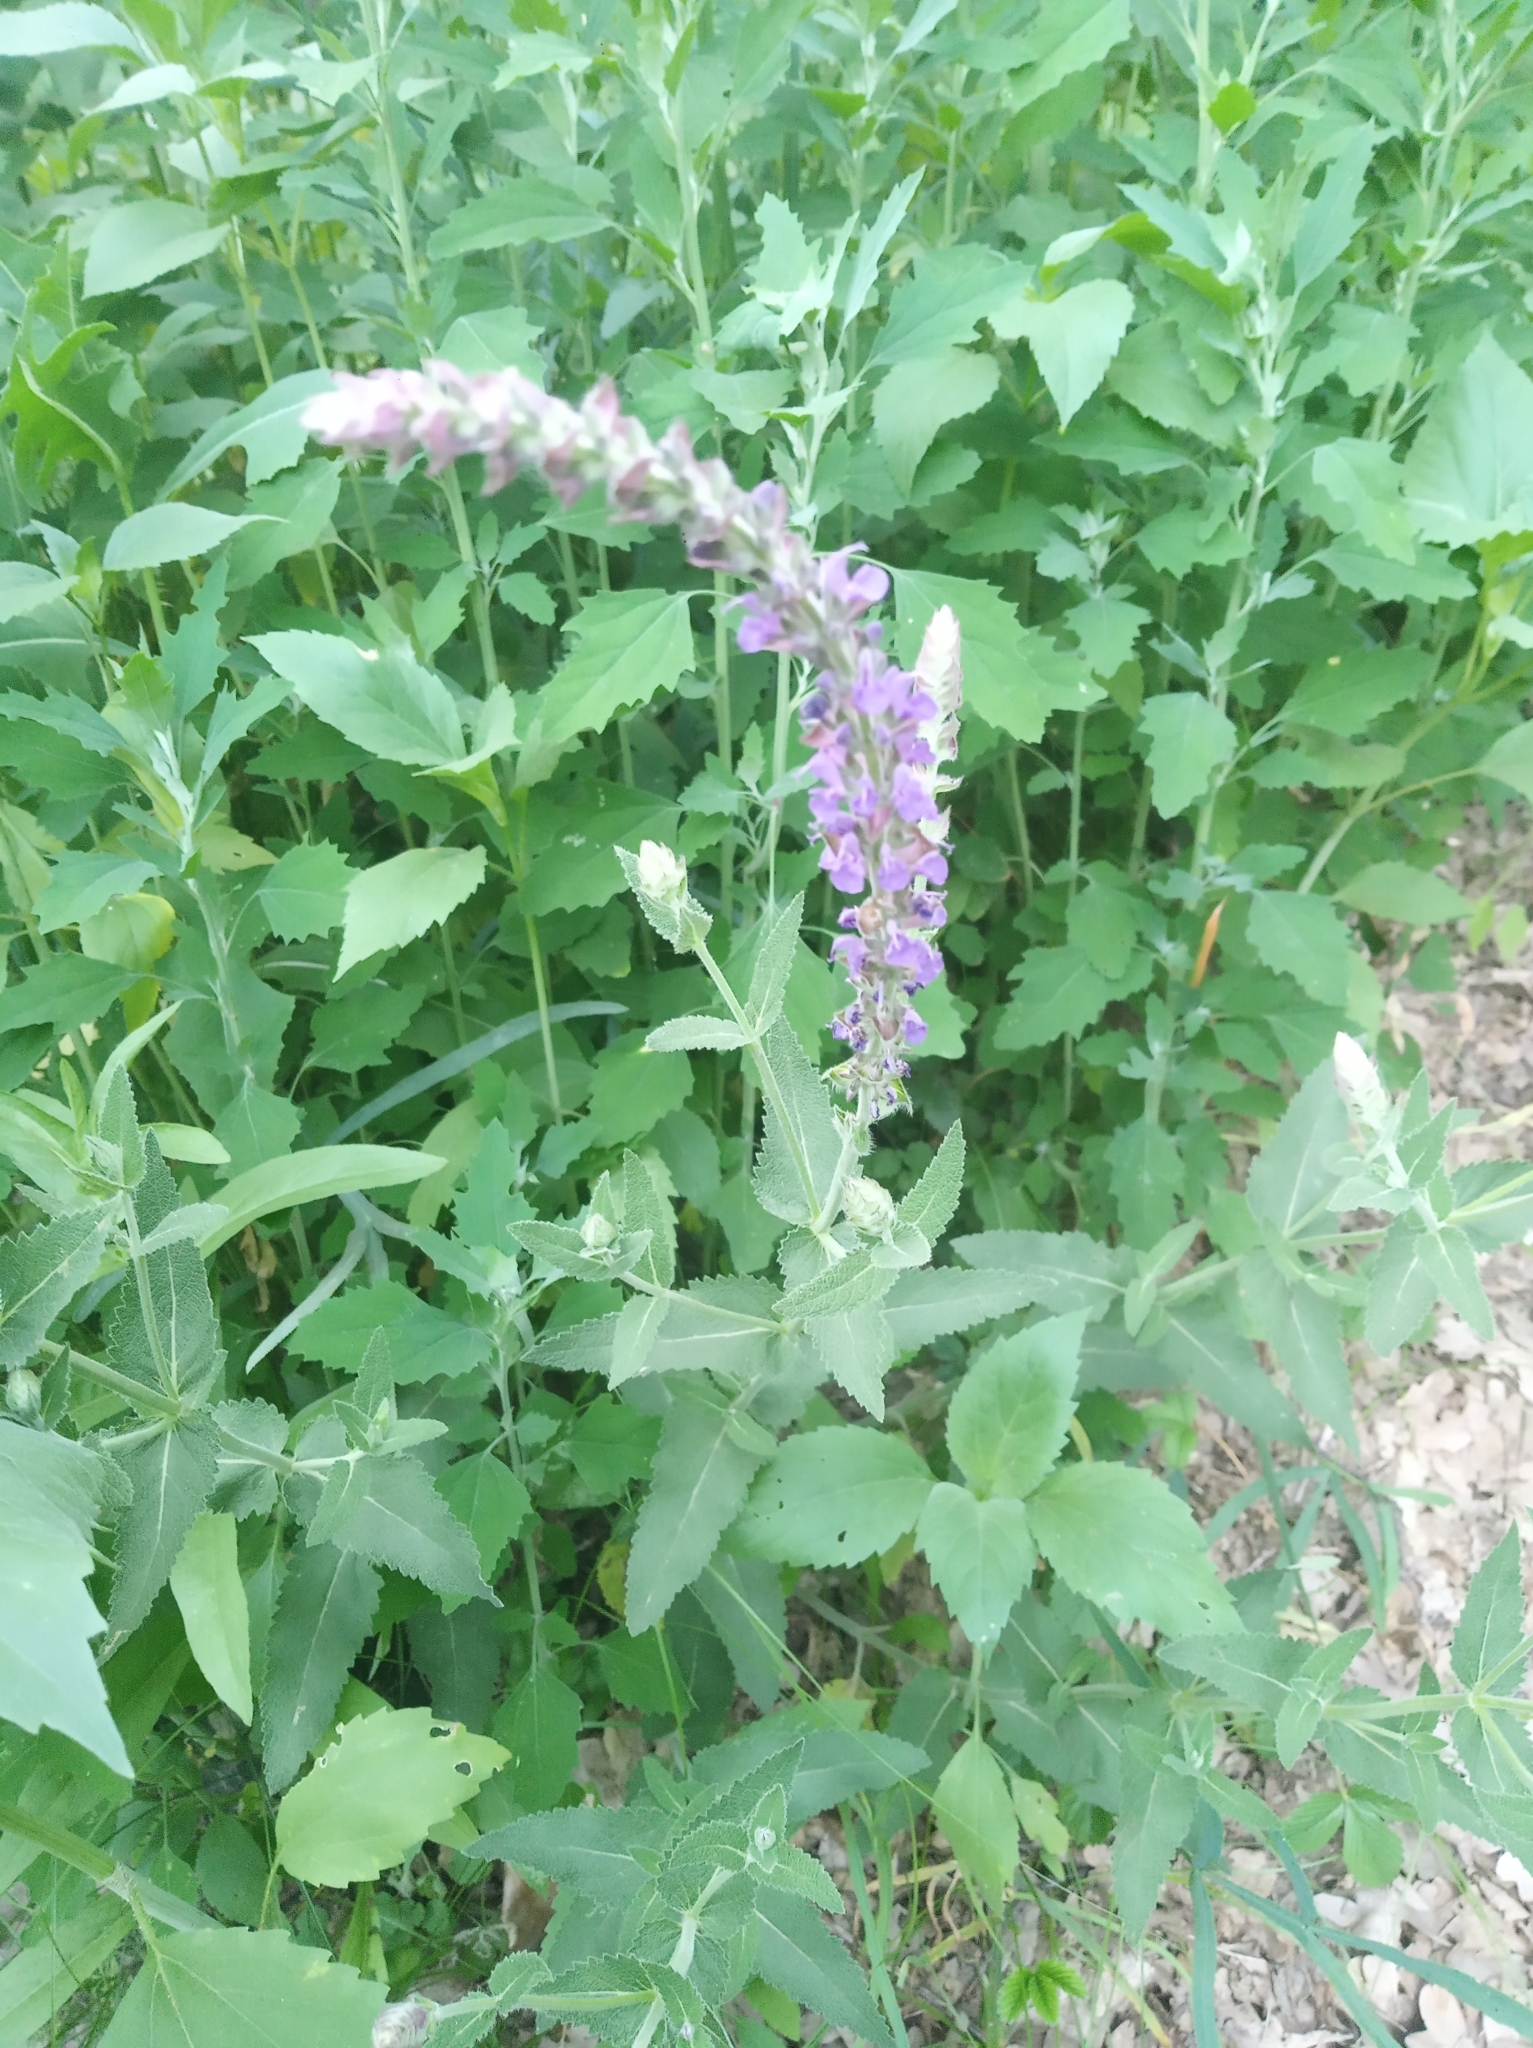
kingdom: Plantae
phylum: Tracheophyta
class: Magnoliopsida
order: Lamiales
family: Lamiaceae
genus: Salvia
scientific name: Salvia nemorosa
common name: Balkan clary
